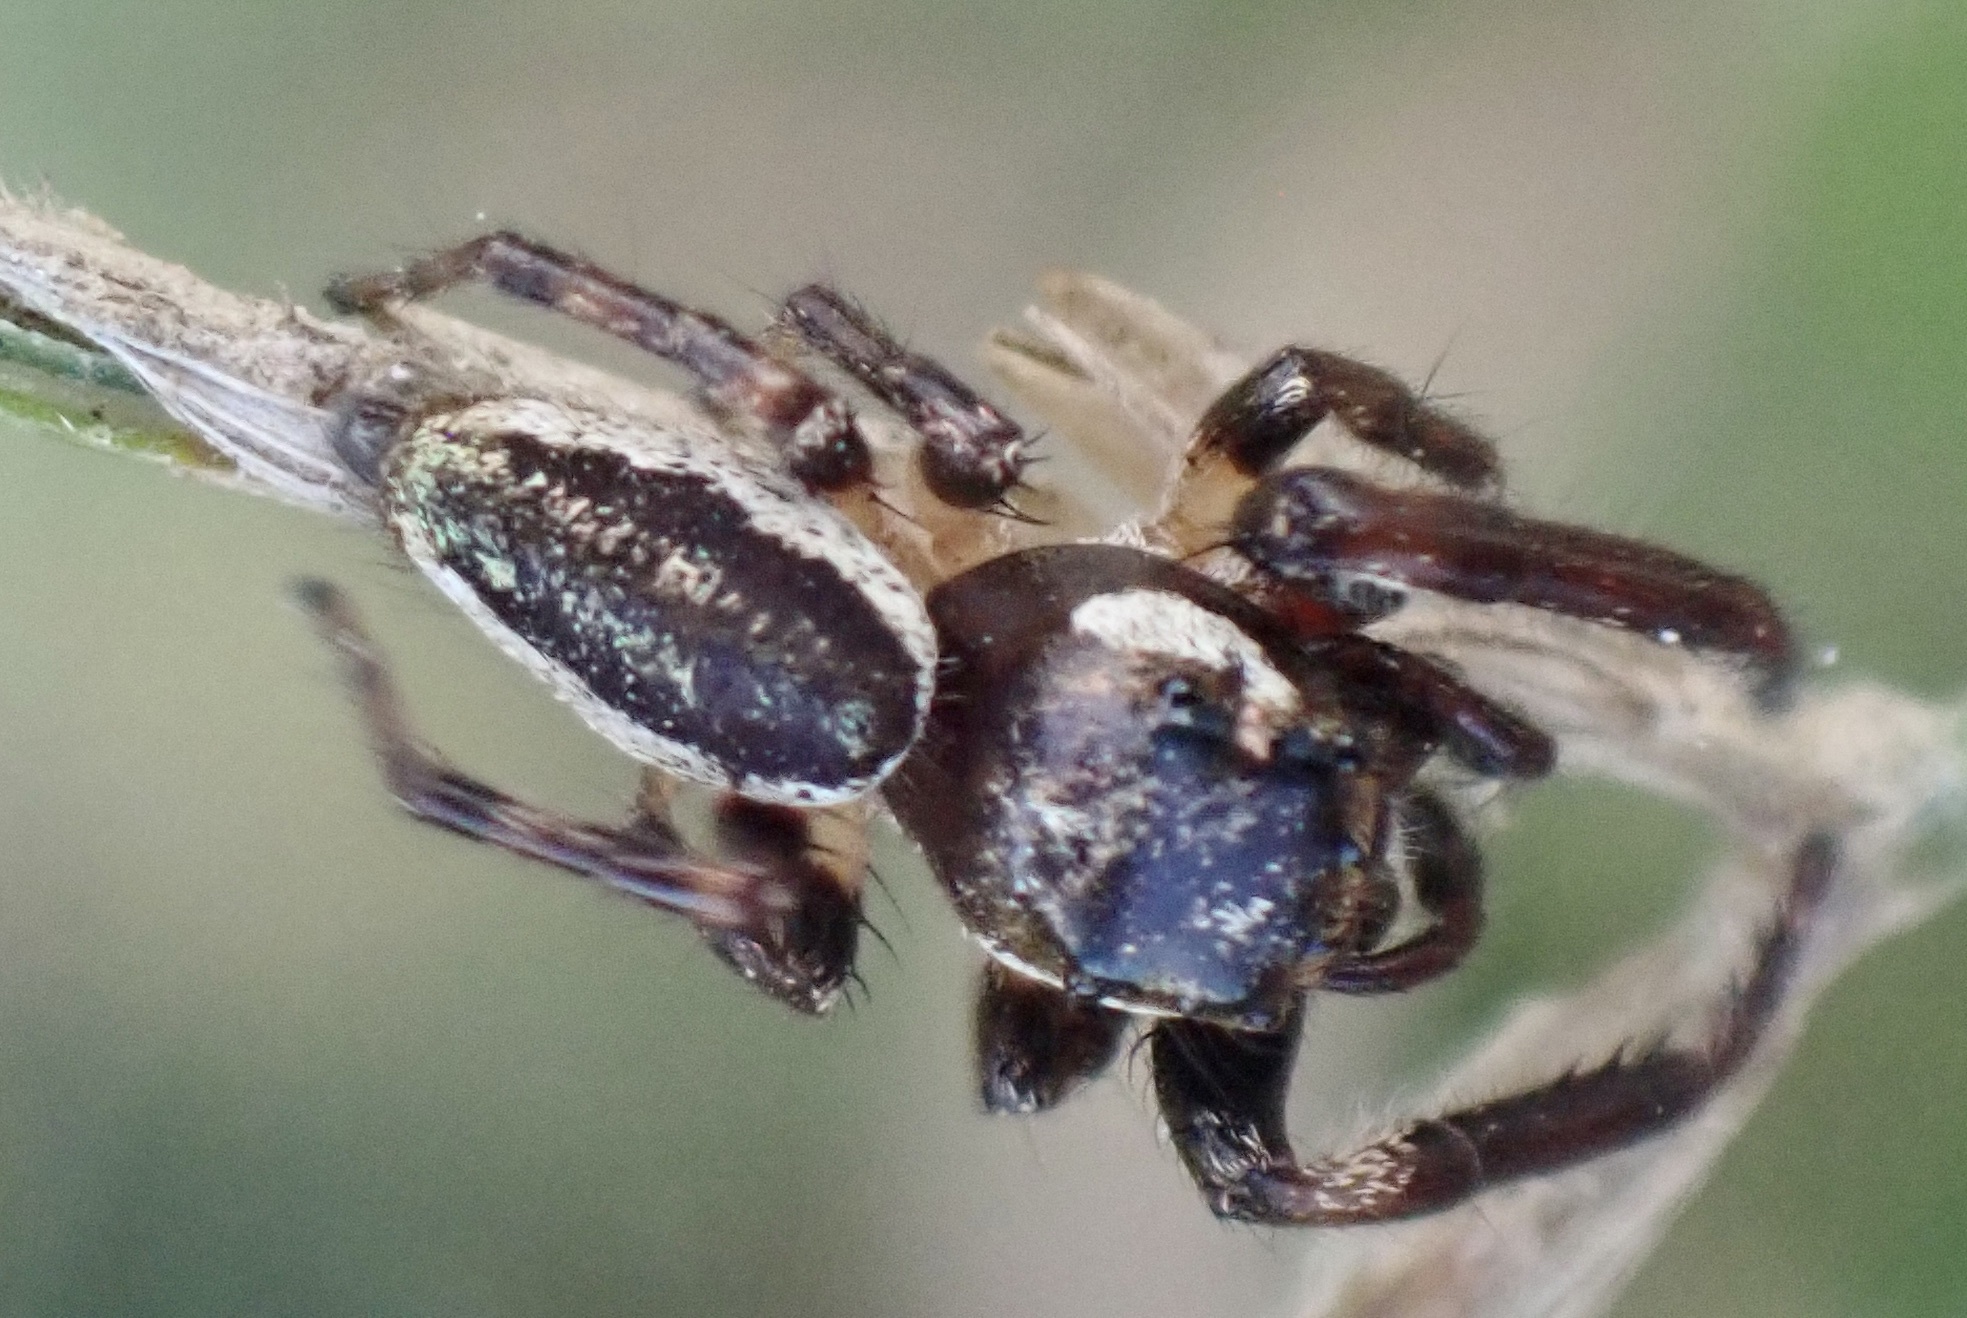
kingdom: Animalia
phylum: Arthropoda
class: Arachnida
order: Araneae
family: Salticidae
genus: Eris
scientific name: Eris militaris
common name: Bronze jumper
